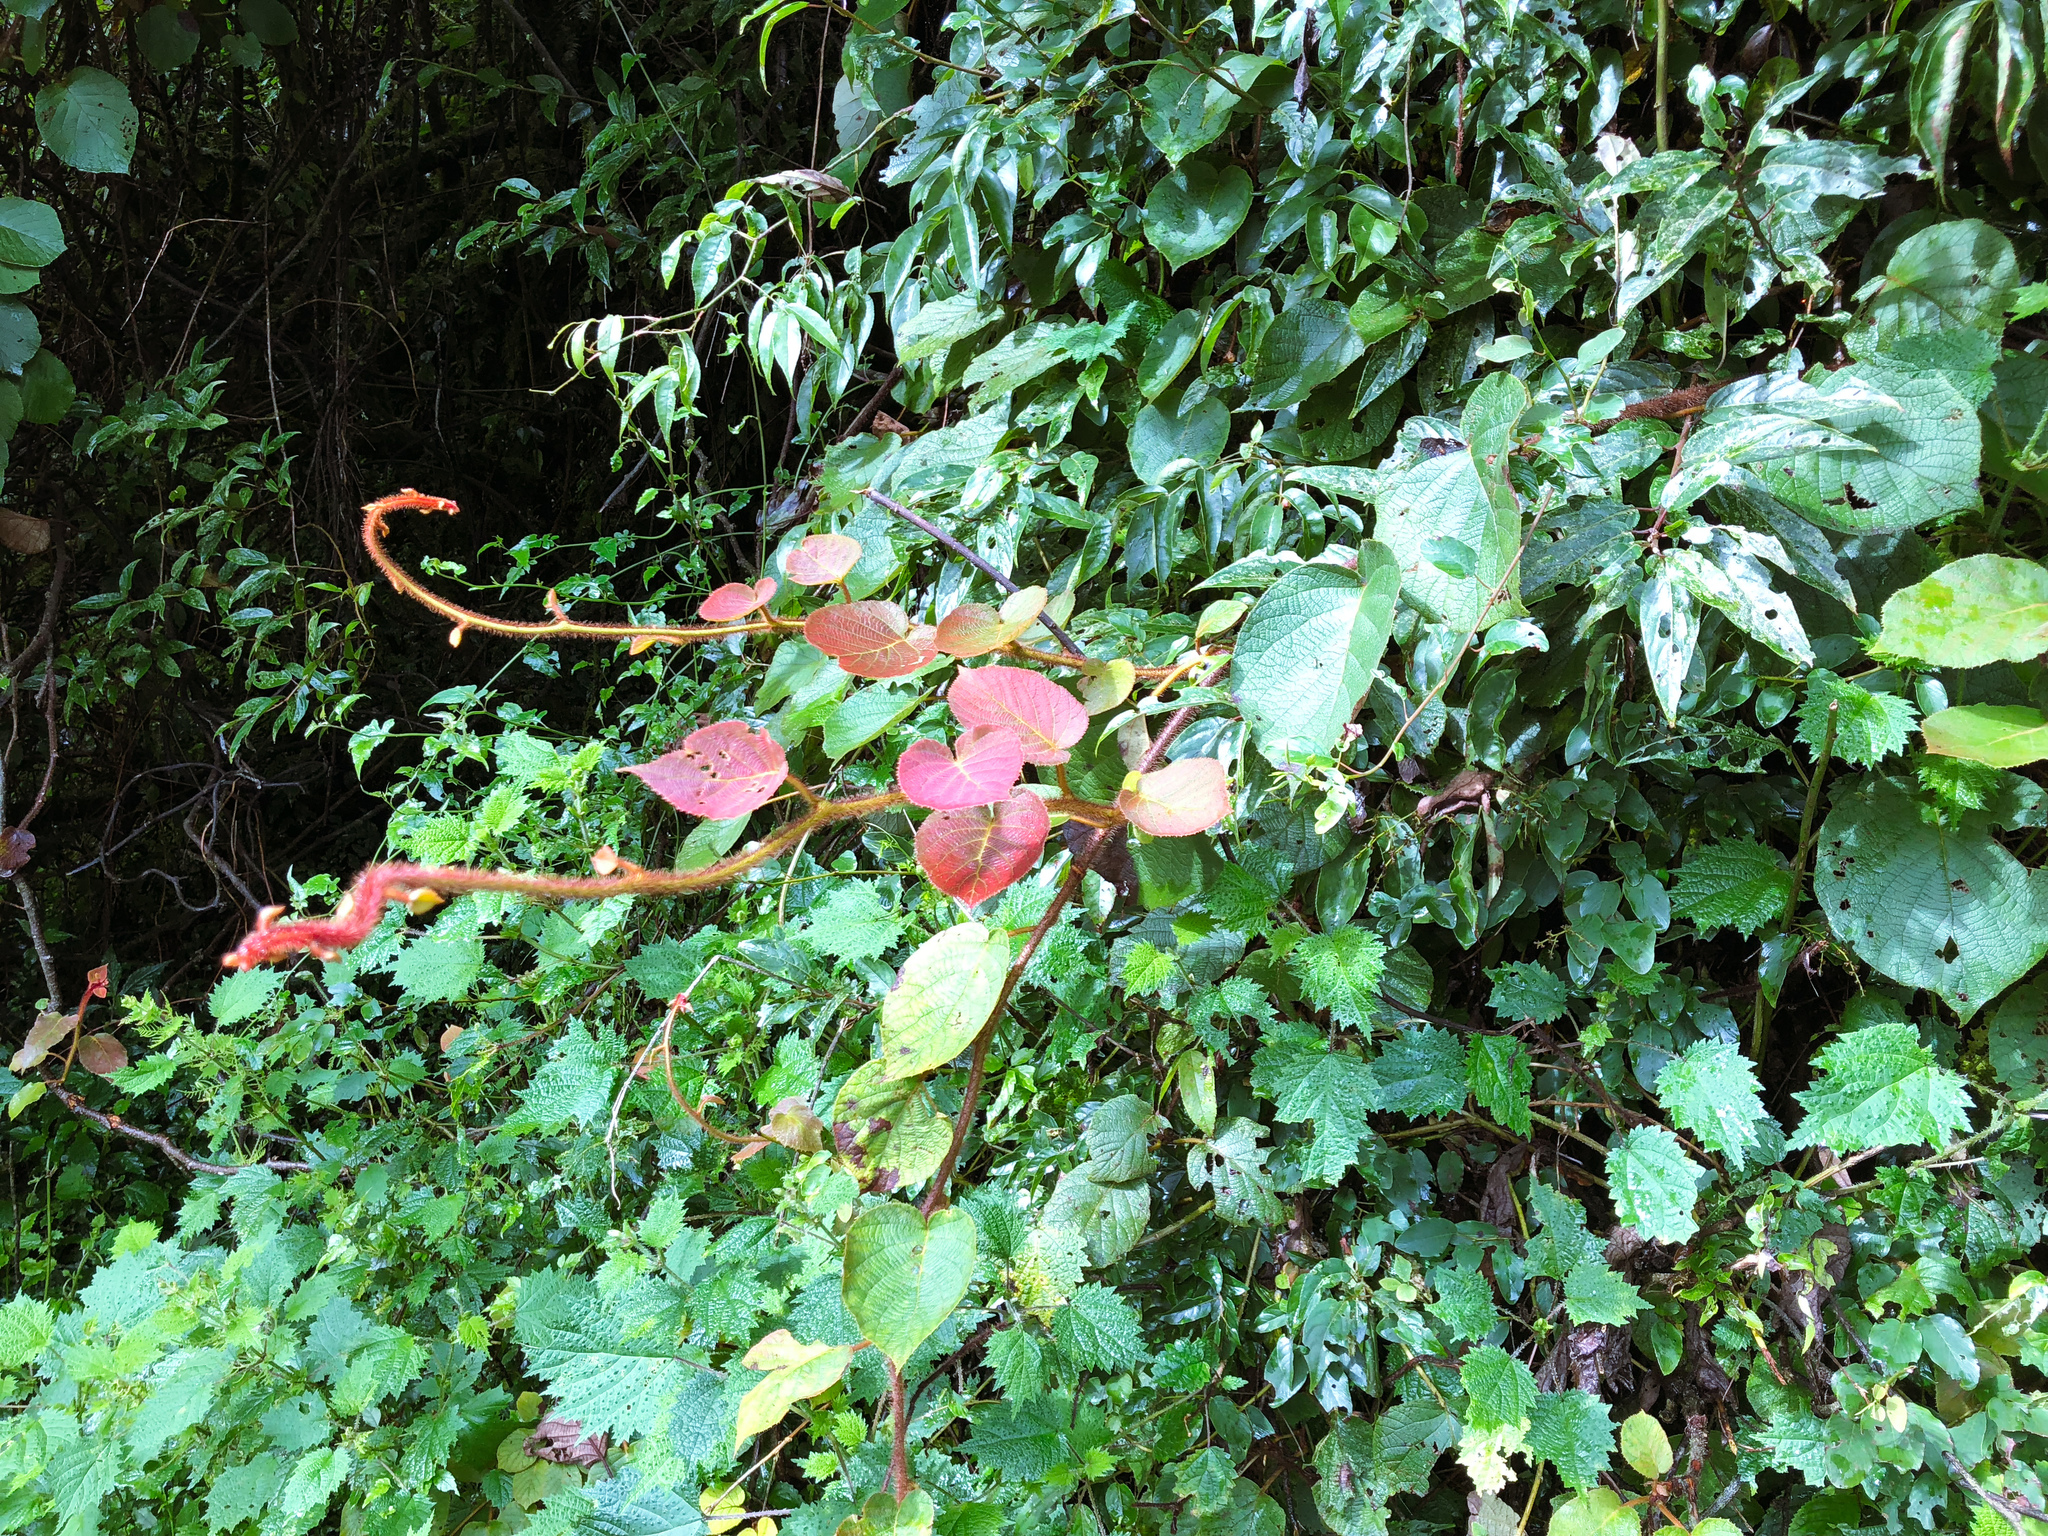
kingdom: Plantae
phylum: Tracheophyta
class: Magnoliopsida
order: Ericales
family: Actinidiaceae
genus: Actinidia
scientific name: Actinidia chinensis
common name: Kiwi
